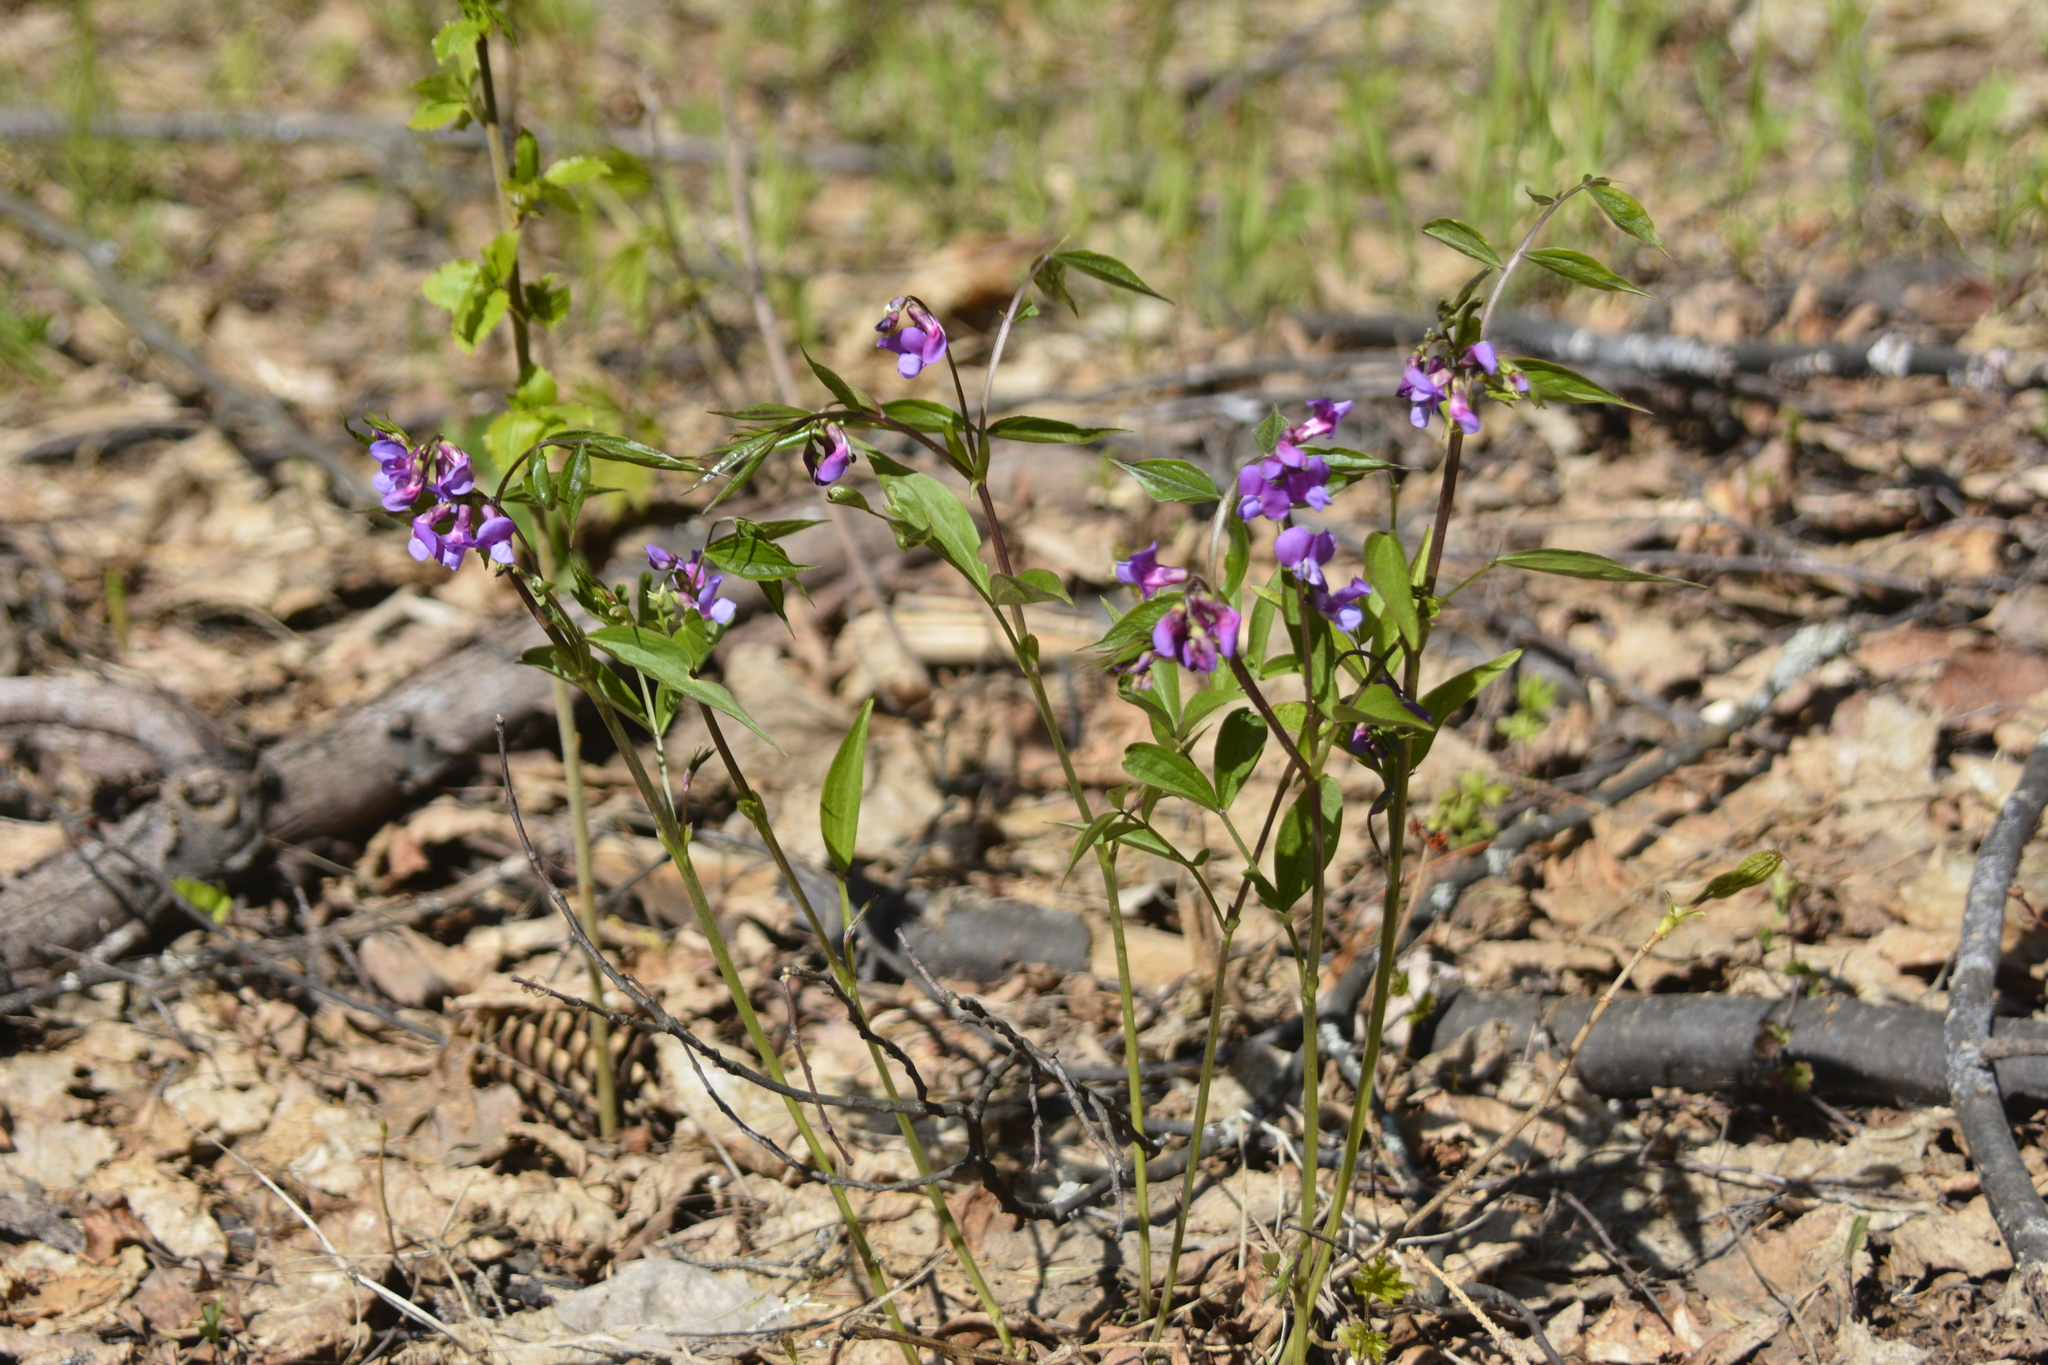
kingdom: Plantae
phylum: Tracheophyta
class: Magnoliopsida
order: Fabales
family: Fabaceae
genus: Lathyrus
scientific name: Lathyrus vernus
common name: Spring pea
